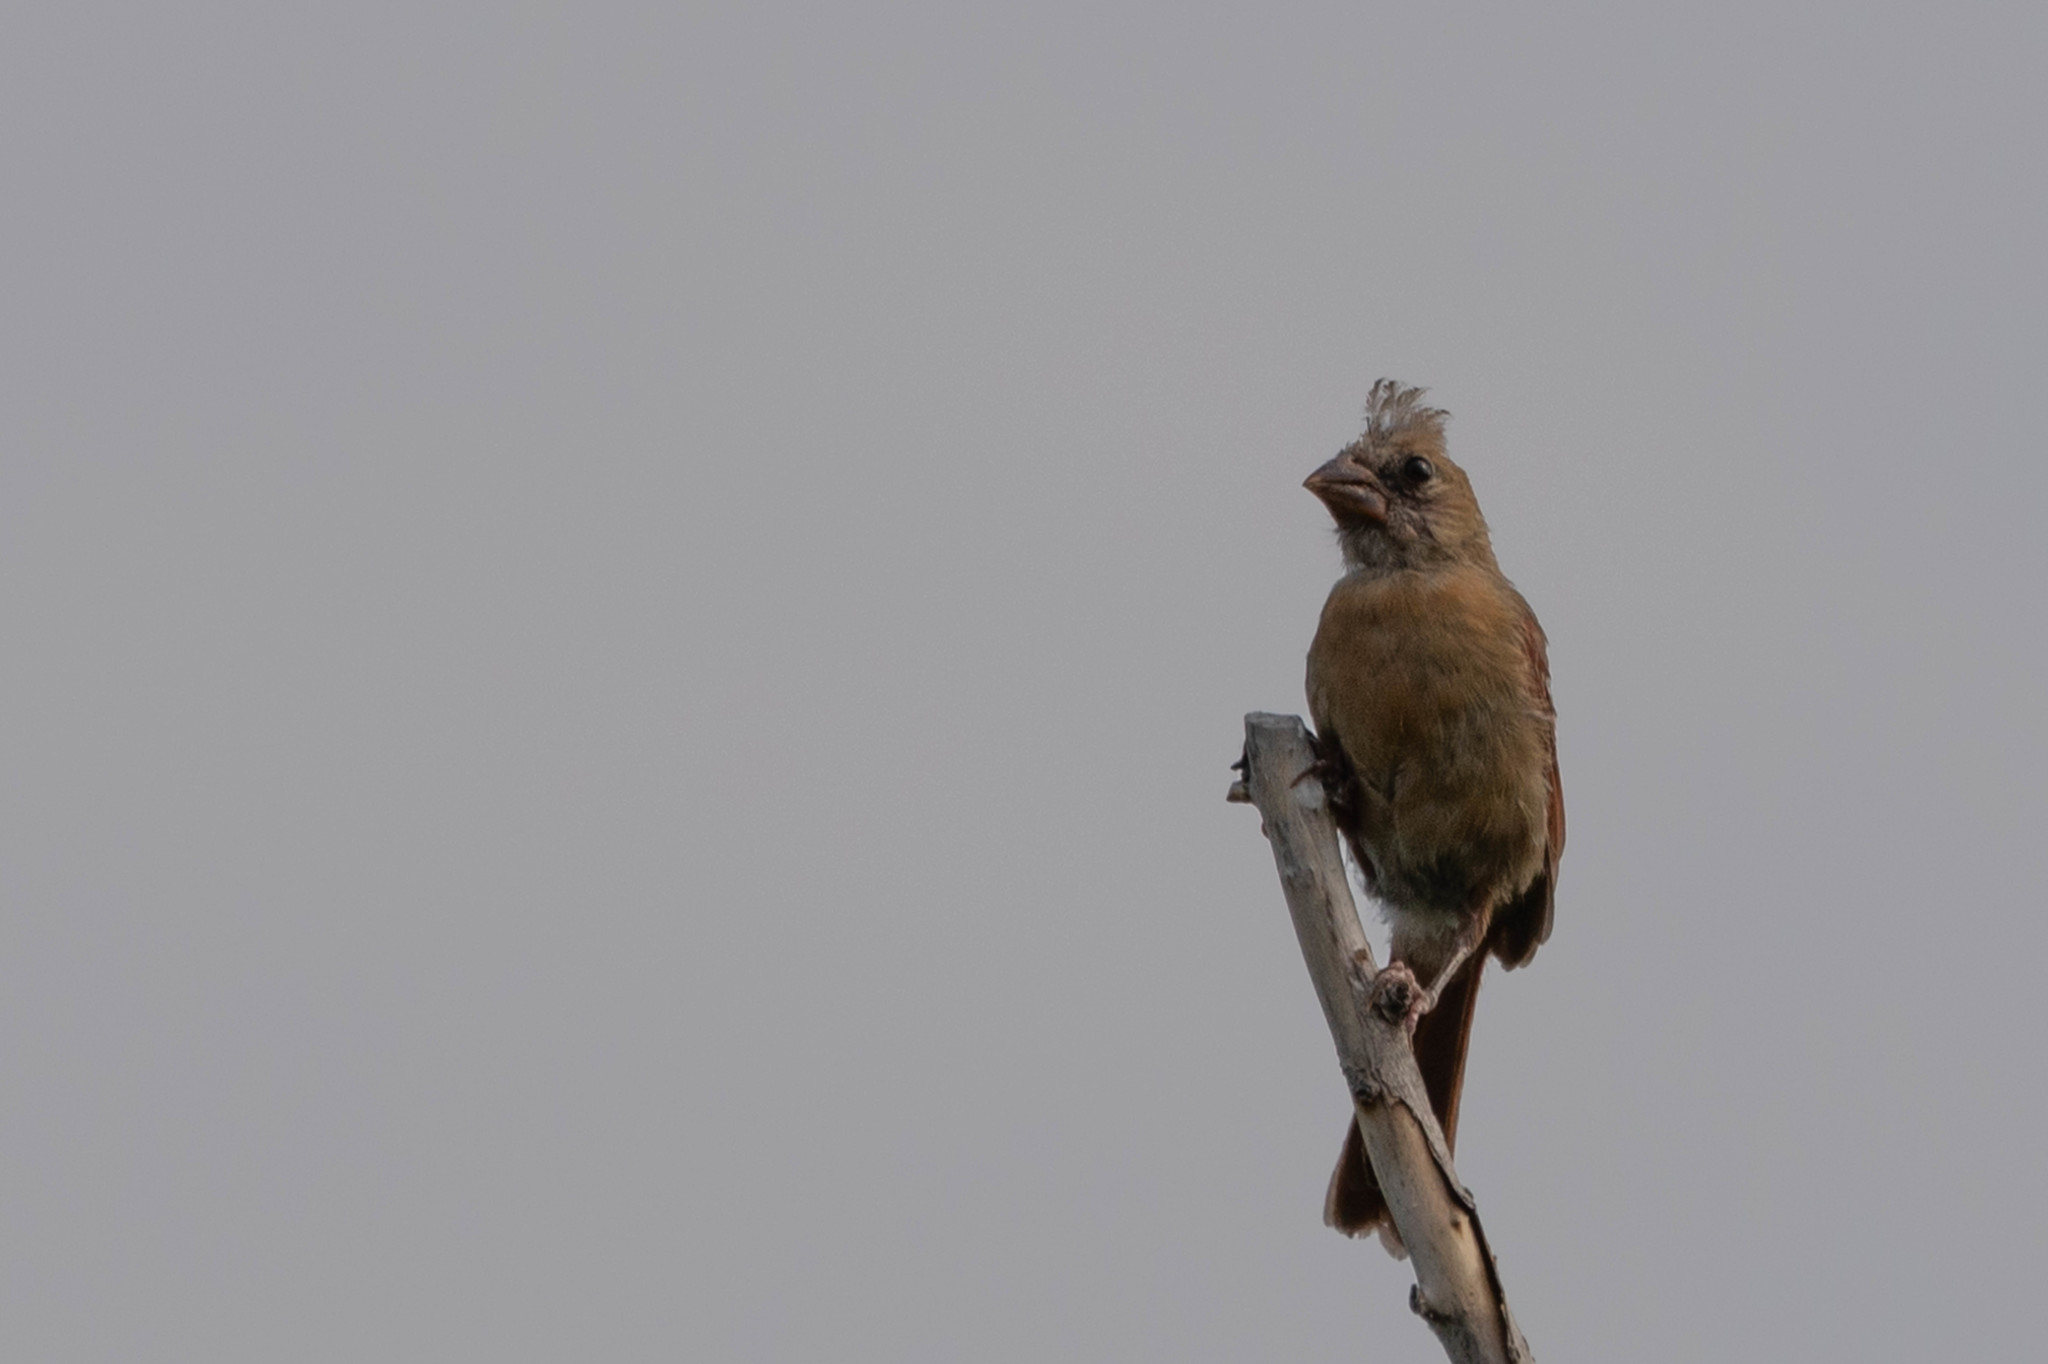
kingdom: Animalia
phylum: Chordata
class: Aves
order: Passeriformes
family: Cardinalidae
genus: Cardinalis
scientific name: Cardinalis cardinalis
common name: Northern cardinal
